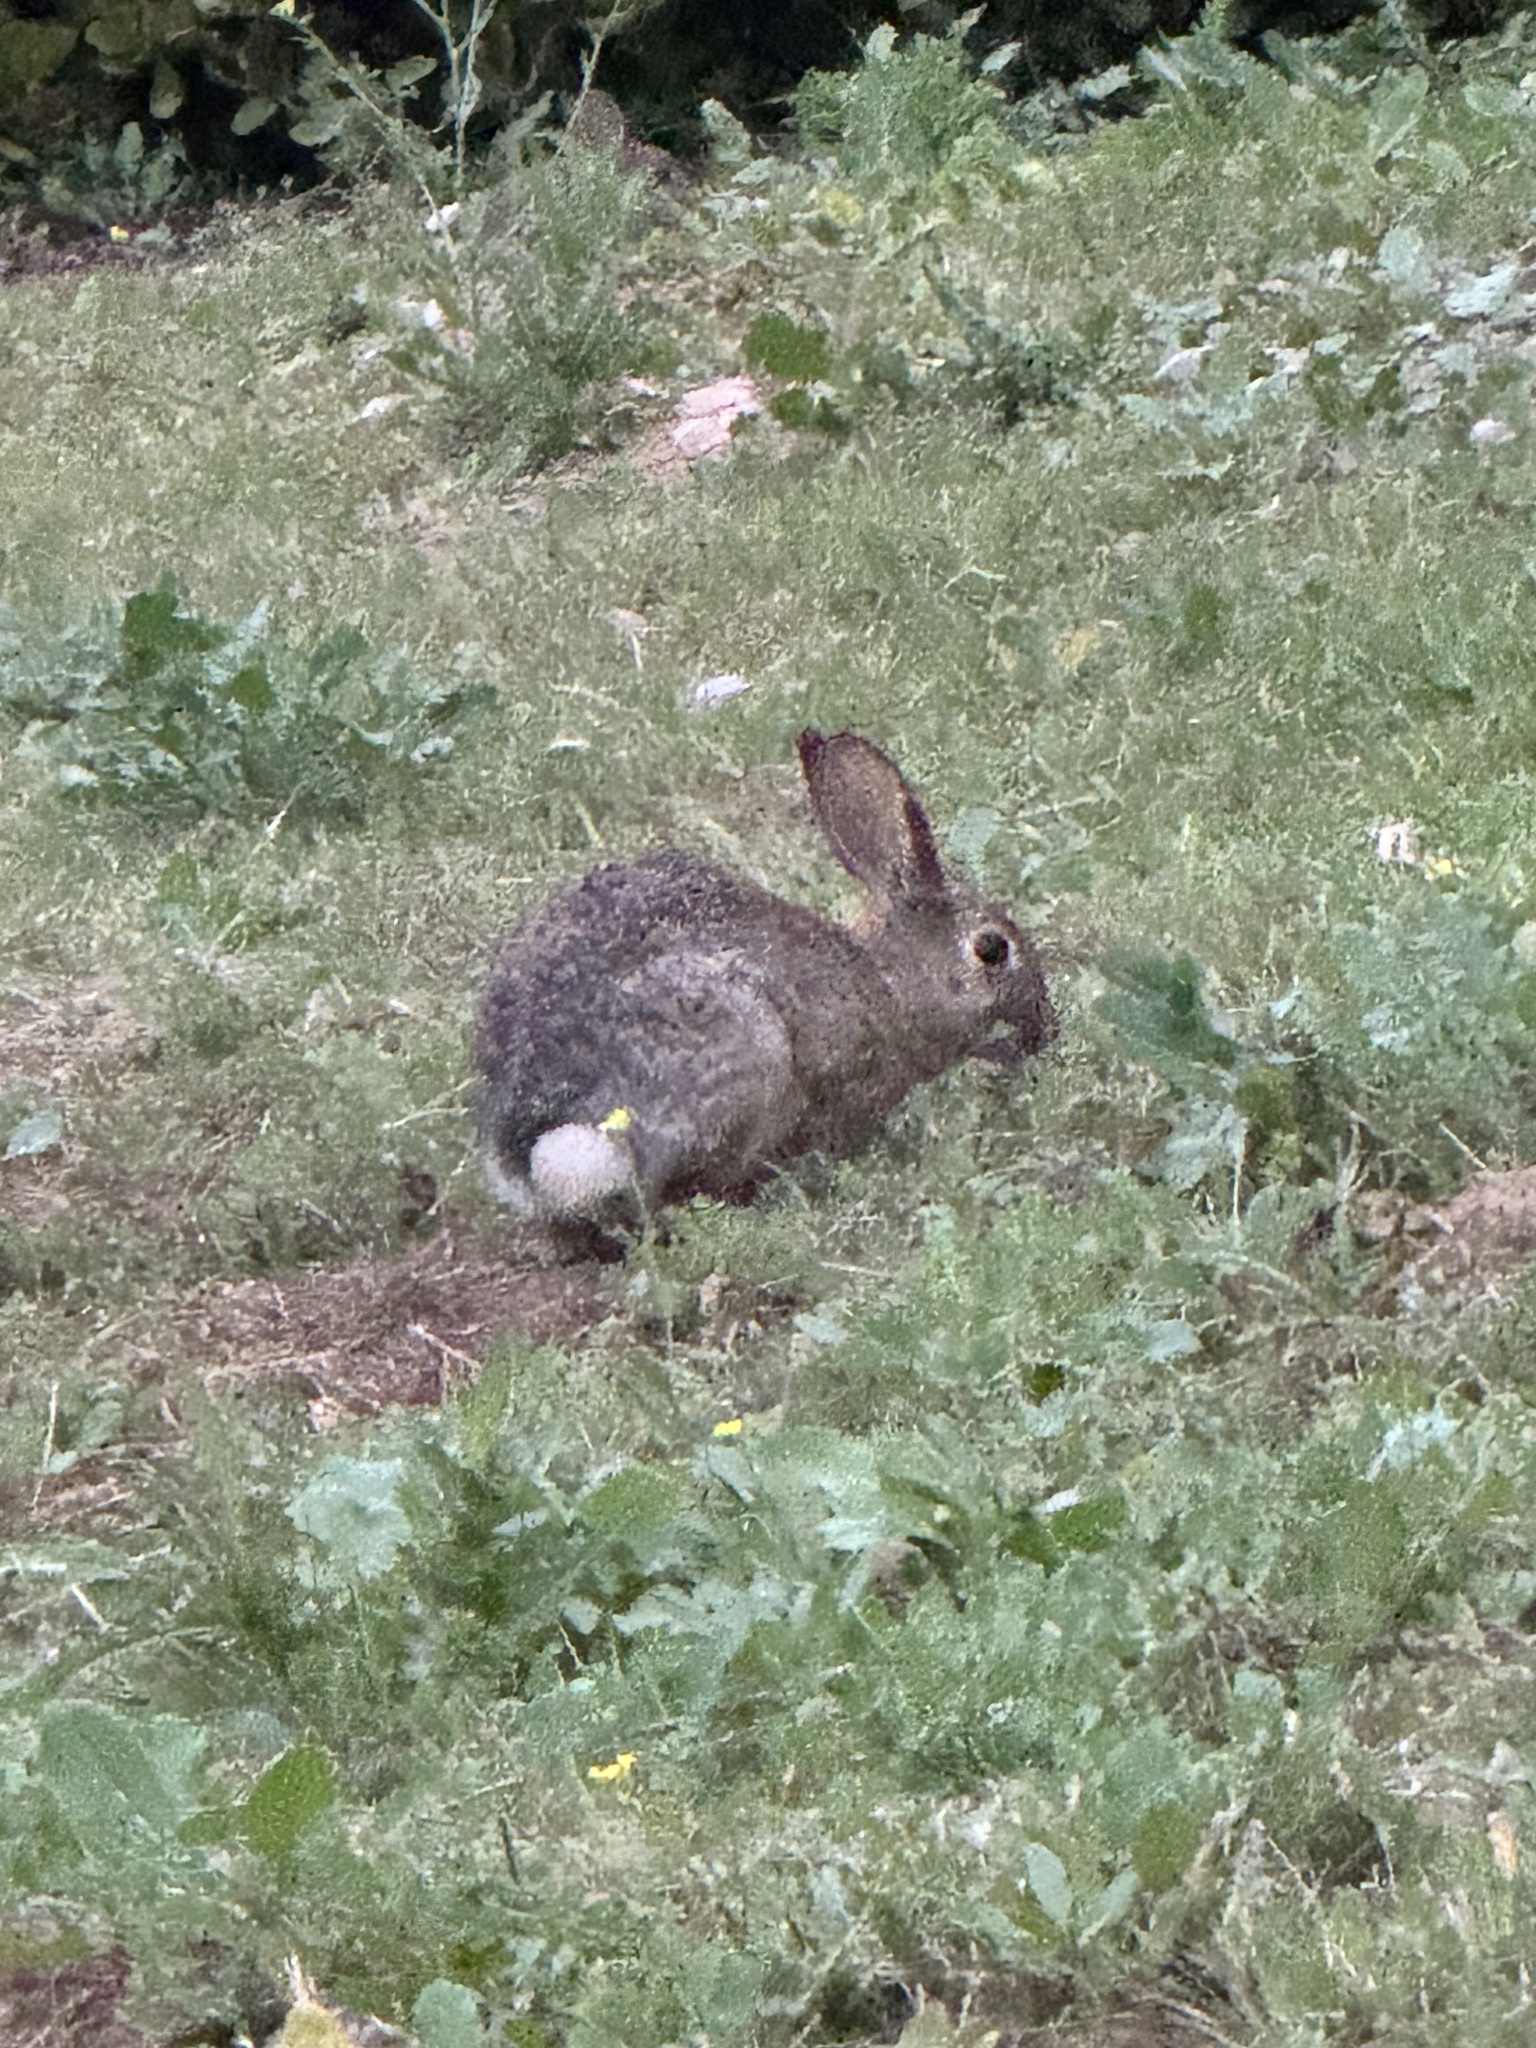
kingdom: Animalia
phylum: Chordata
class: Mammalia
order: Lagomorpha
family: Leporidae
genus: Sylvilagus
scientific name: Sylvilagus audubonii
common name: Desert cottontail
